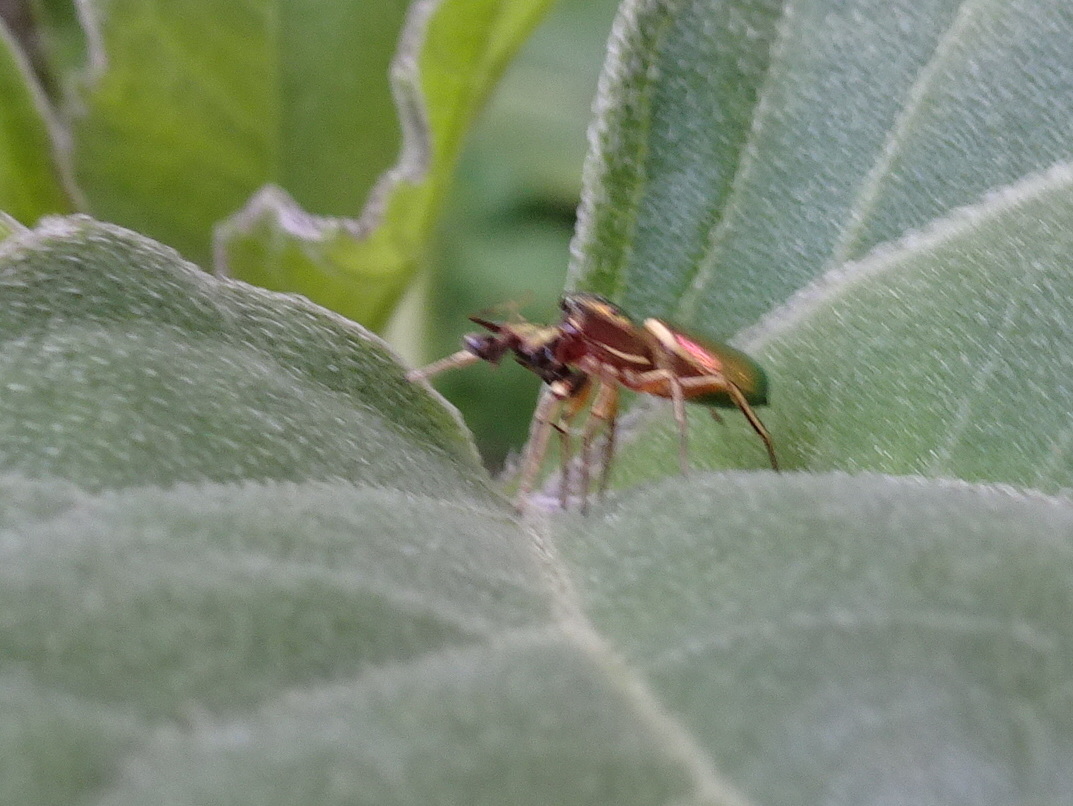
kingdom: Animalia
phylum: Arthropoda
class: Arachnida
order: Araneae
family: Salticidae
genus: Tutelina
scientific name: Tutelina elegans
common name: Thin-spined jumping spider
